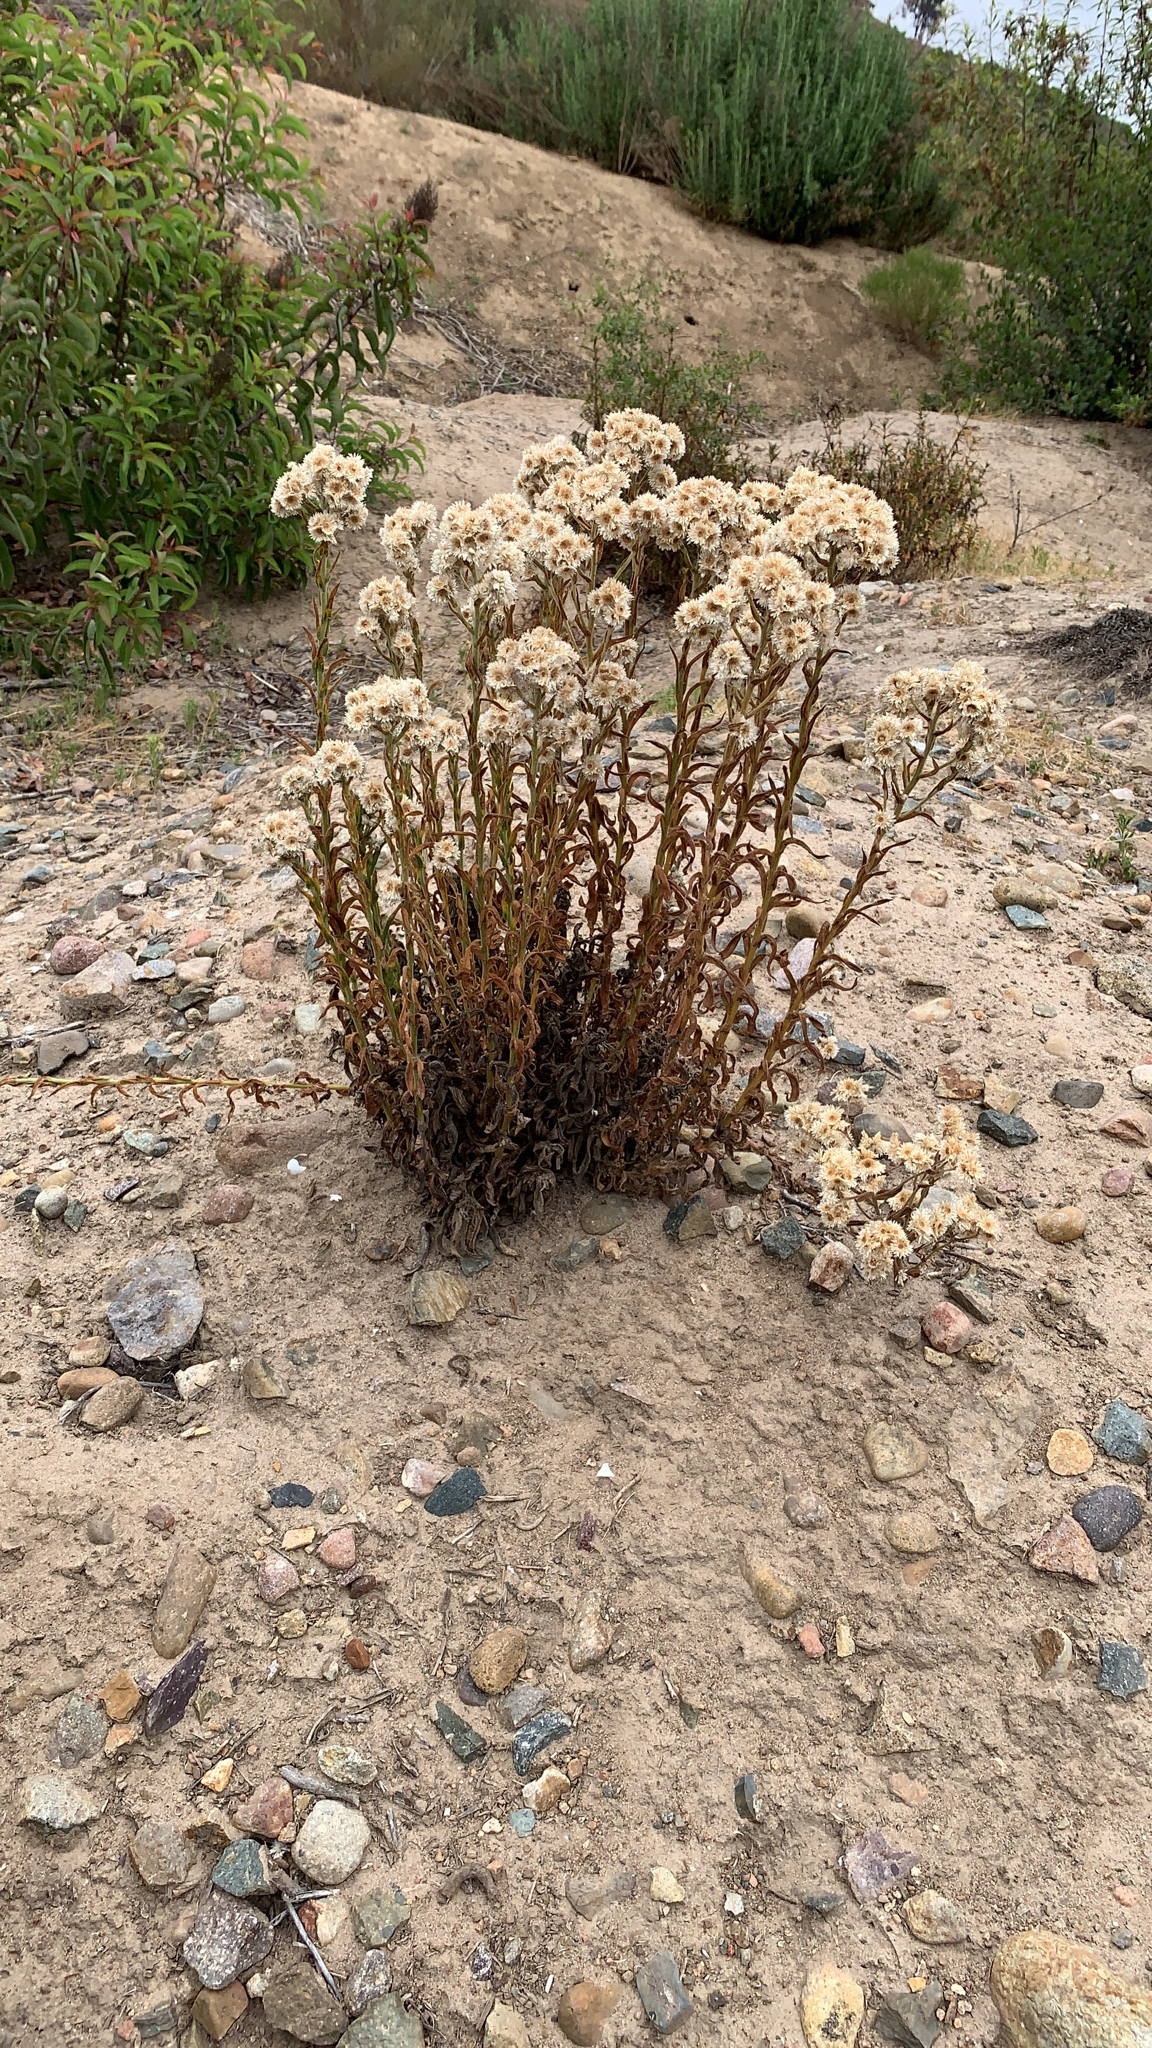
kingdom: Plantae
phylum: Tracheophyta
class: Magnoliopsida
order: Asterales
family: Asteraceae
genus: Pseudognaphalium
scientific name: Pseudognaphalium californicum
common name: California rabbit-tobacco
